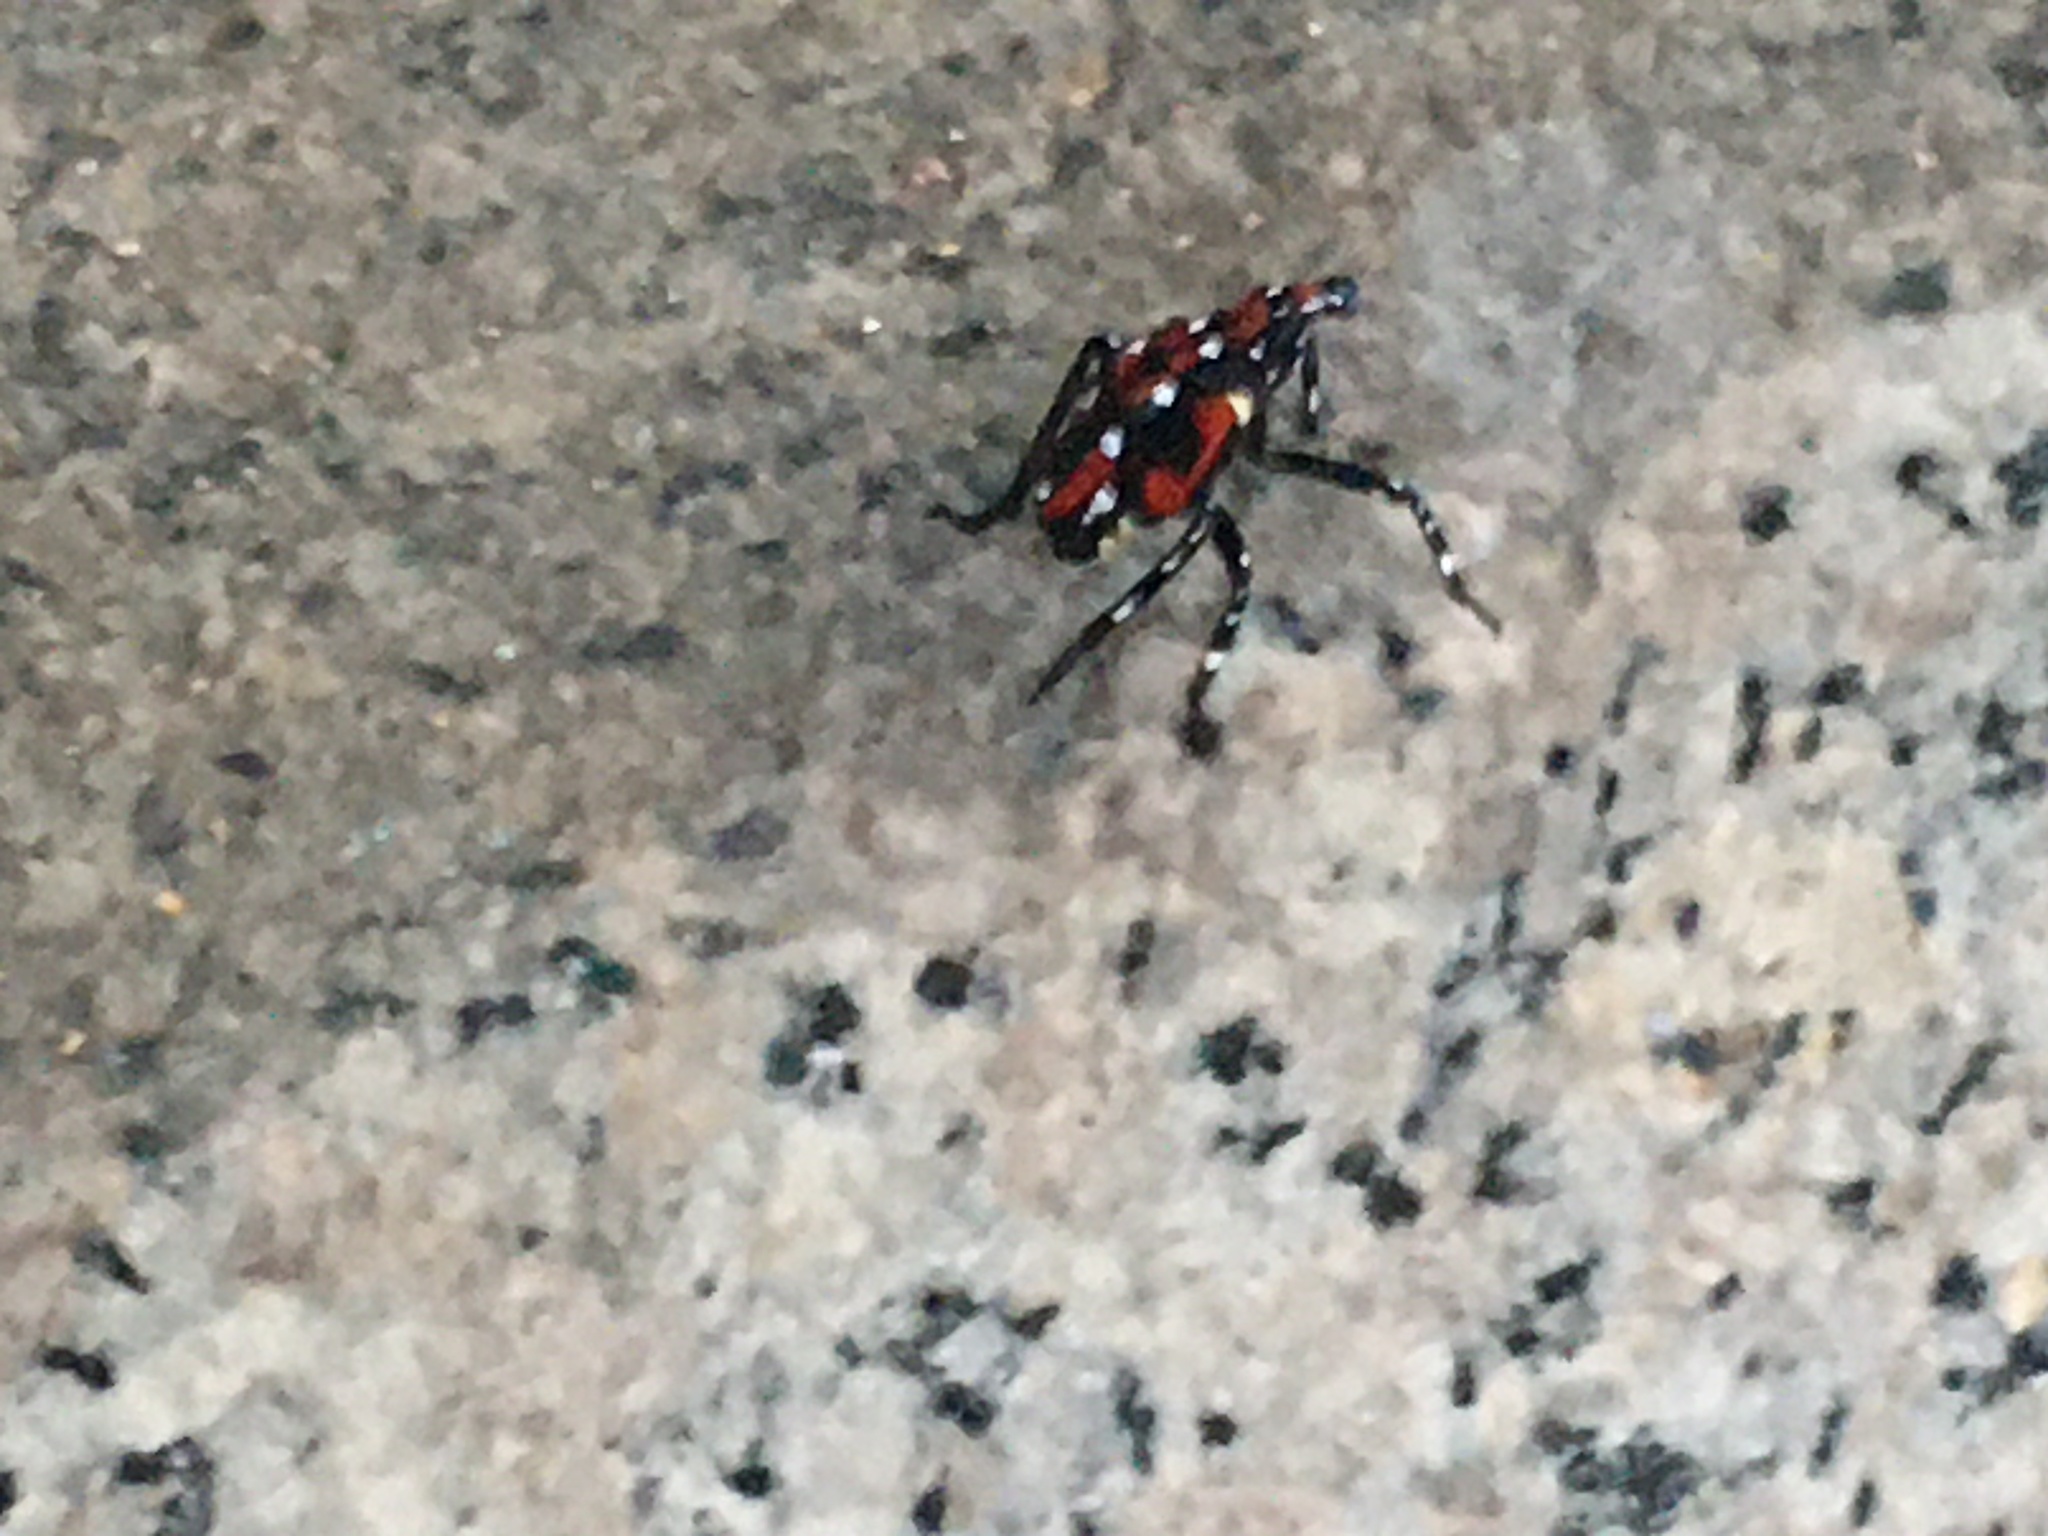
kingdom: Animalia
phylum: Arthropoda
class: Insecta
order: Hemiptera
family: Fulgoridae
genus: Lycorma
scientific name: Lycorma delicatula
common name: Spotted lanternfly
